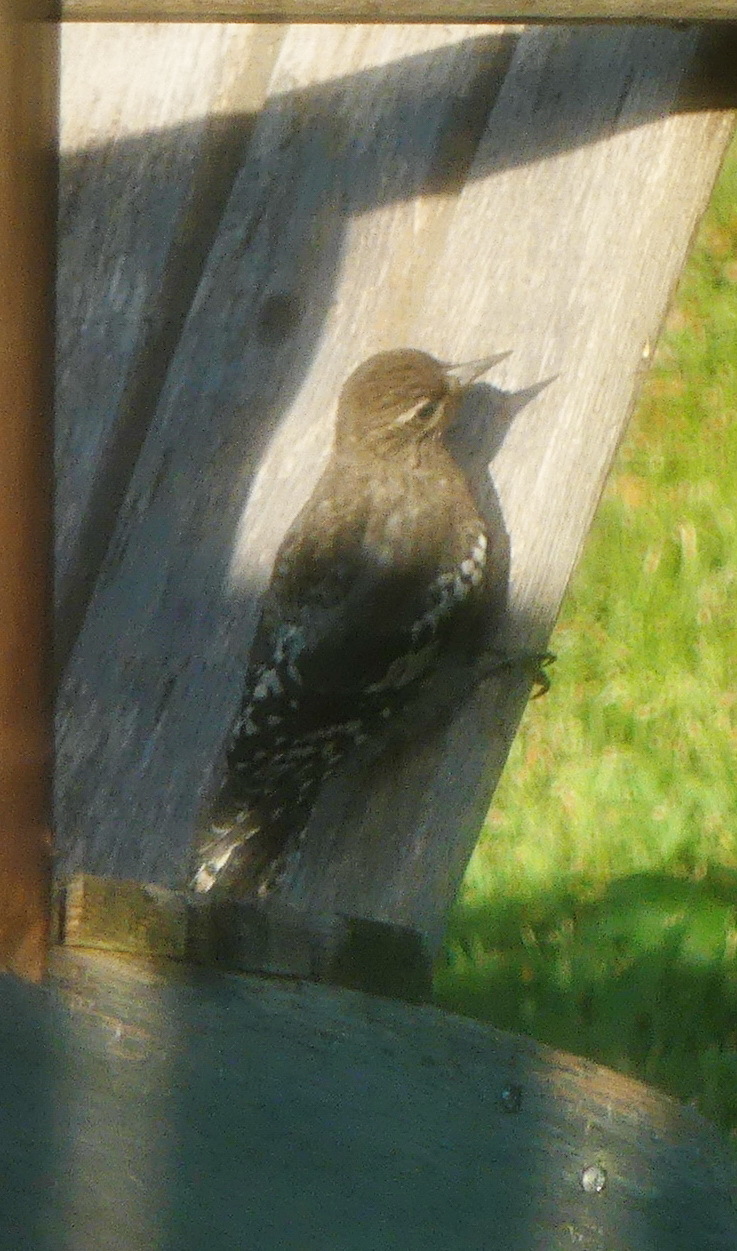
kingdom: Animalia
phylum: Chordata
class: Aves
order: Piciformes
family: Picidae
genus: Sphyrapicus
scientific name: Sphyrapicus varius
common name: Yellow-bellied sapsucker
